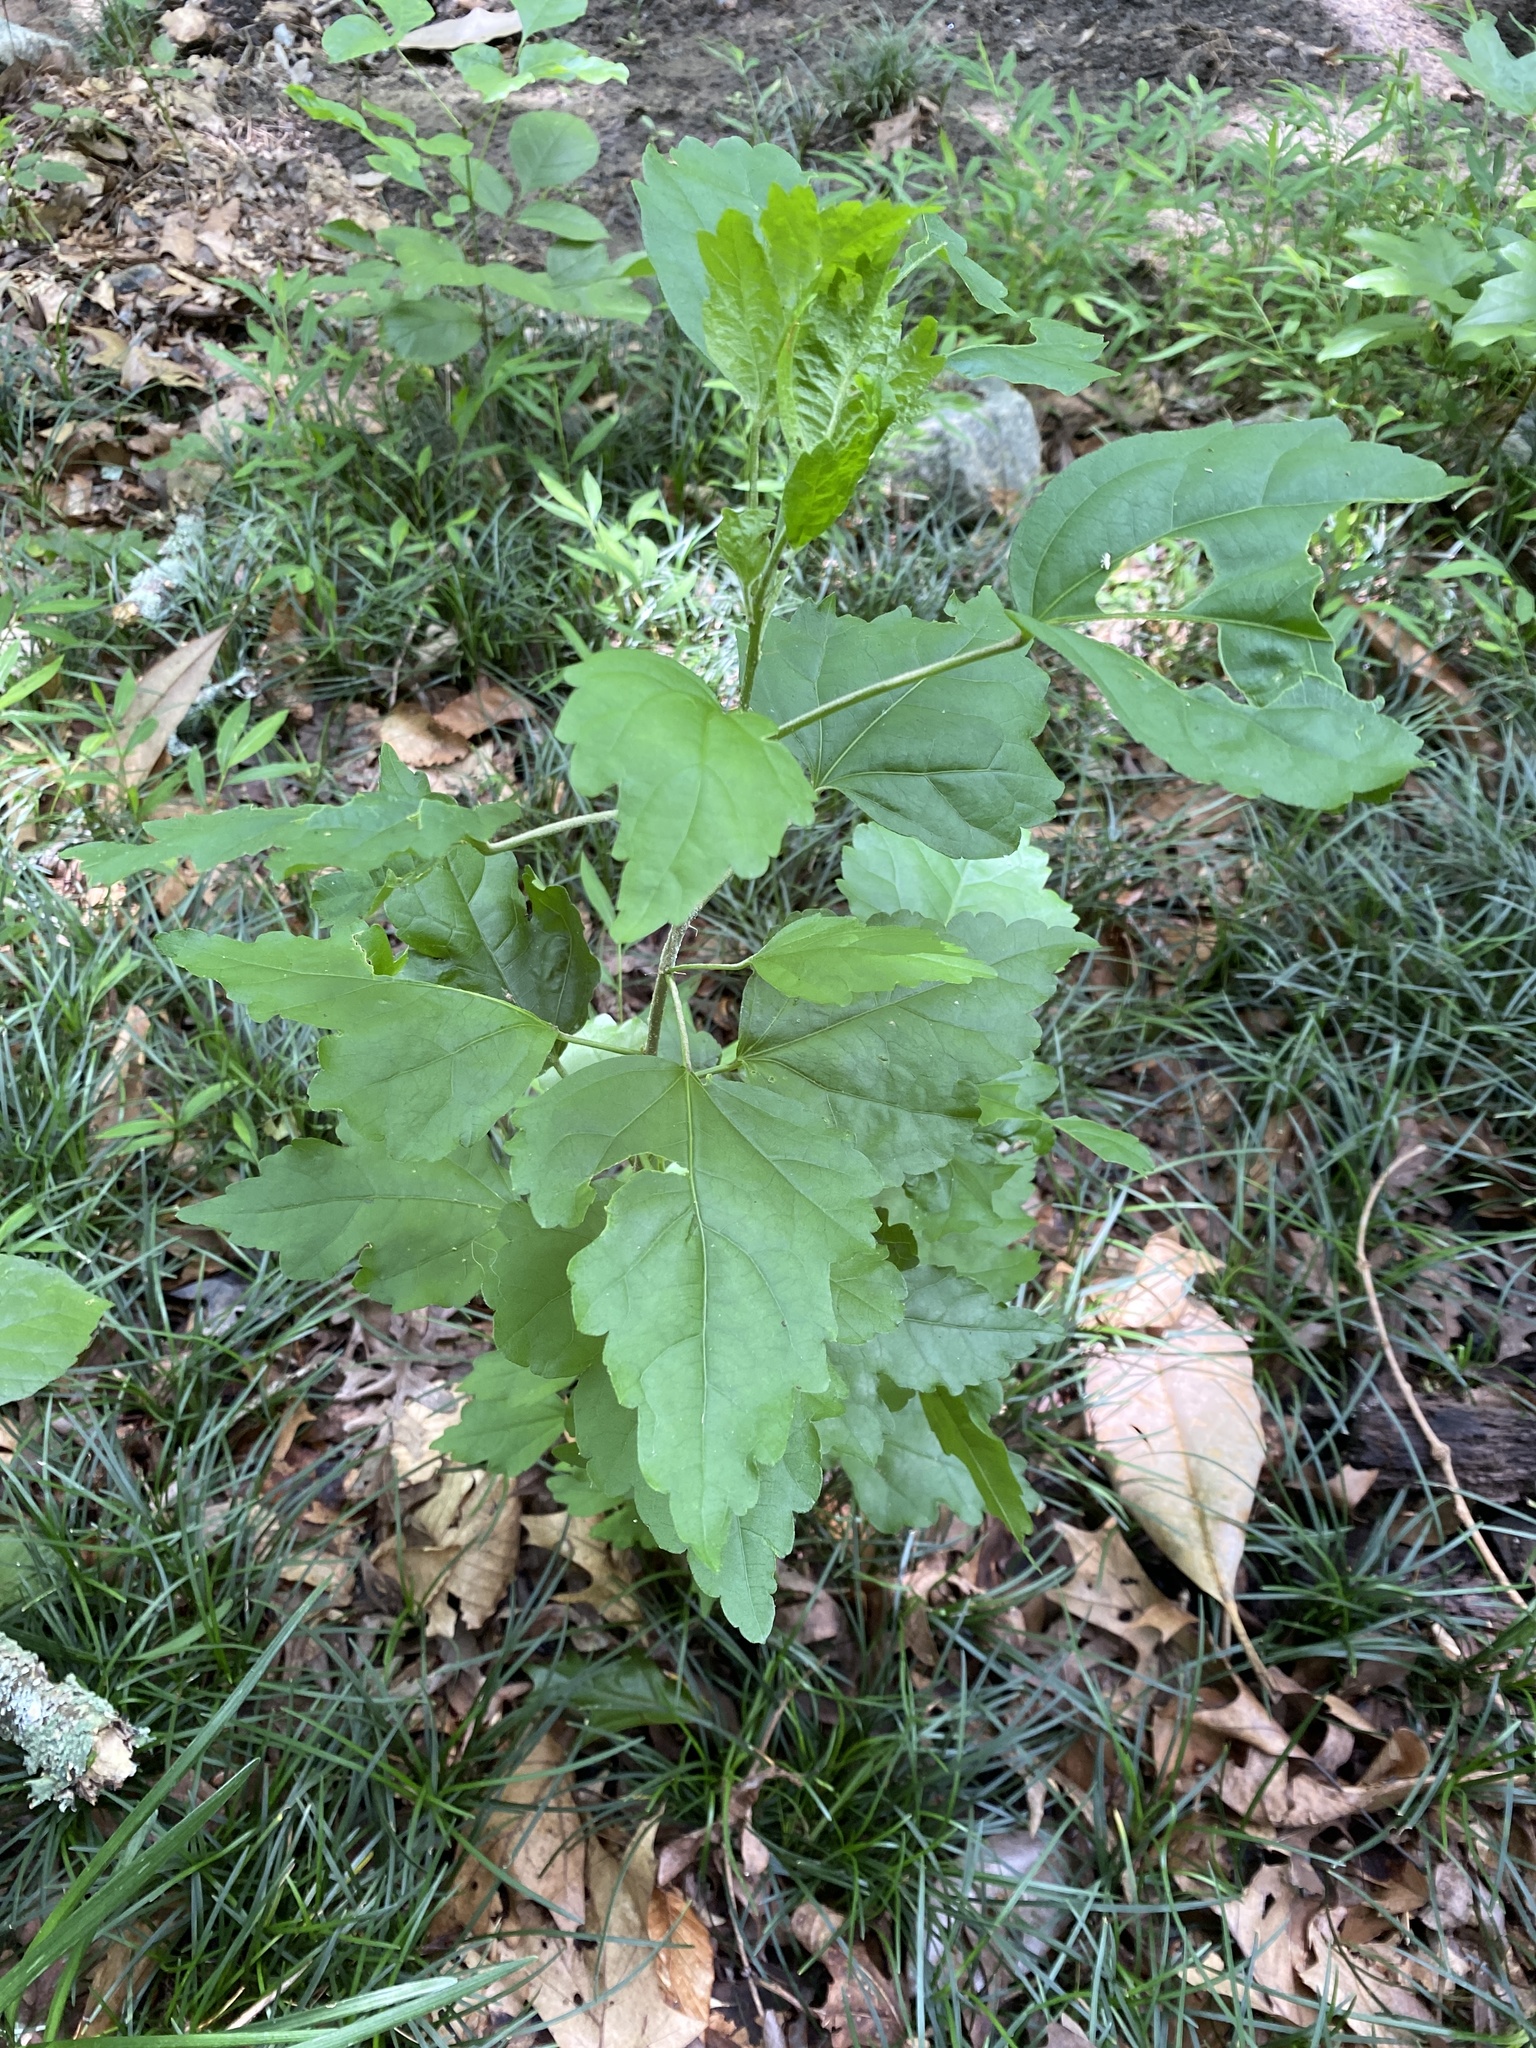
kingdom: Plantae
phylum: Tracheophyta
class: Magnoliopsida
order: Malvales
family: Malvaceae
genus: Hibiscus
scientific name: Hibiscus syriacus
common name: Syrian ketmia
